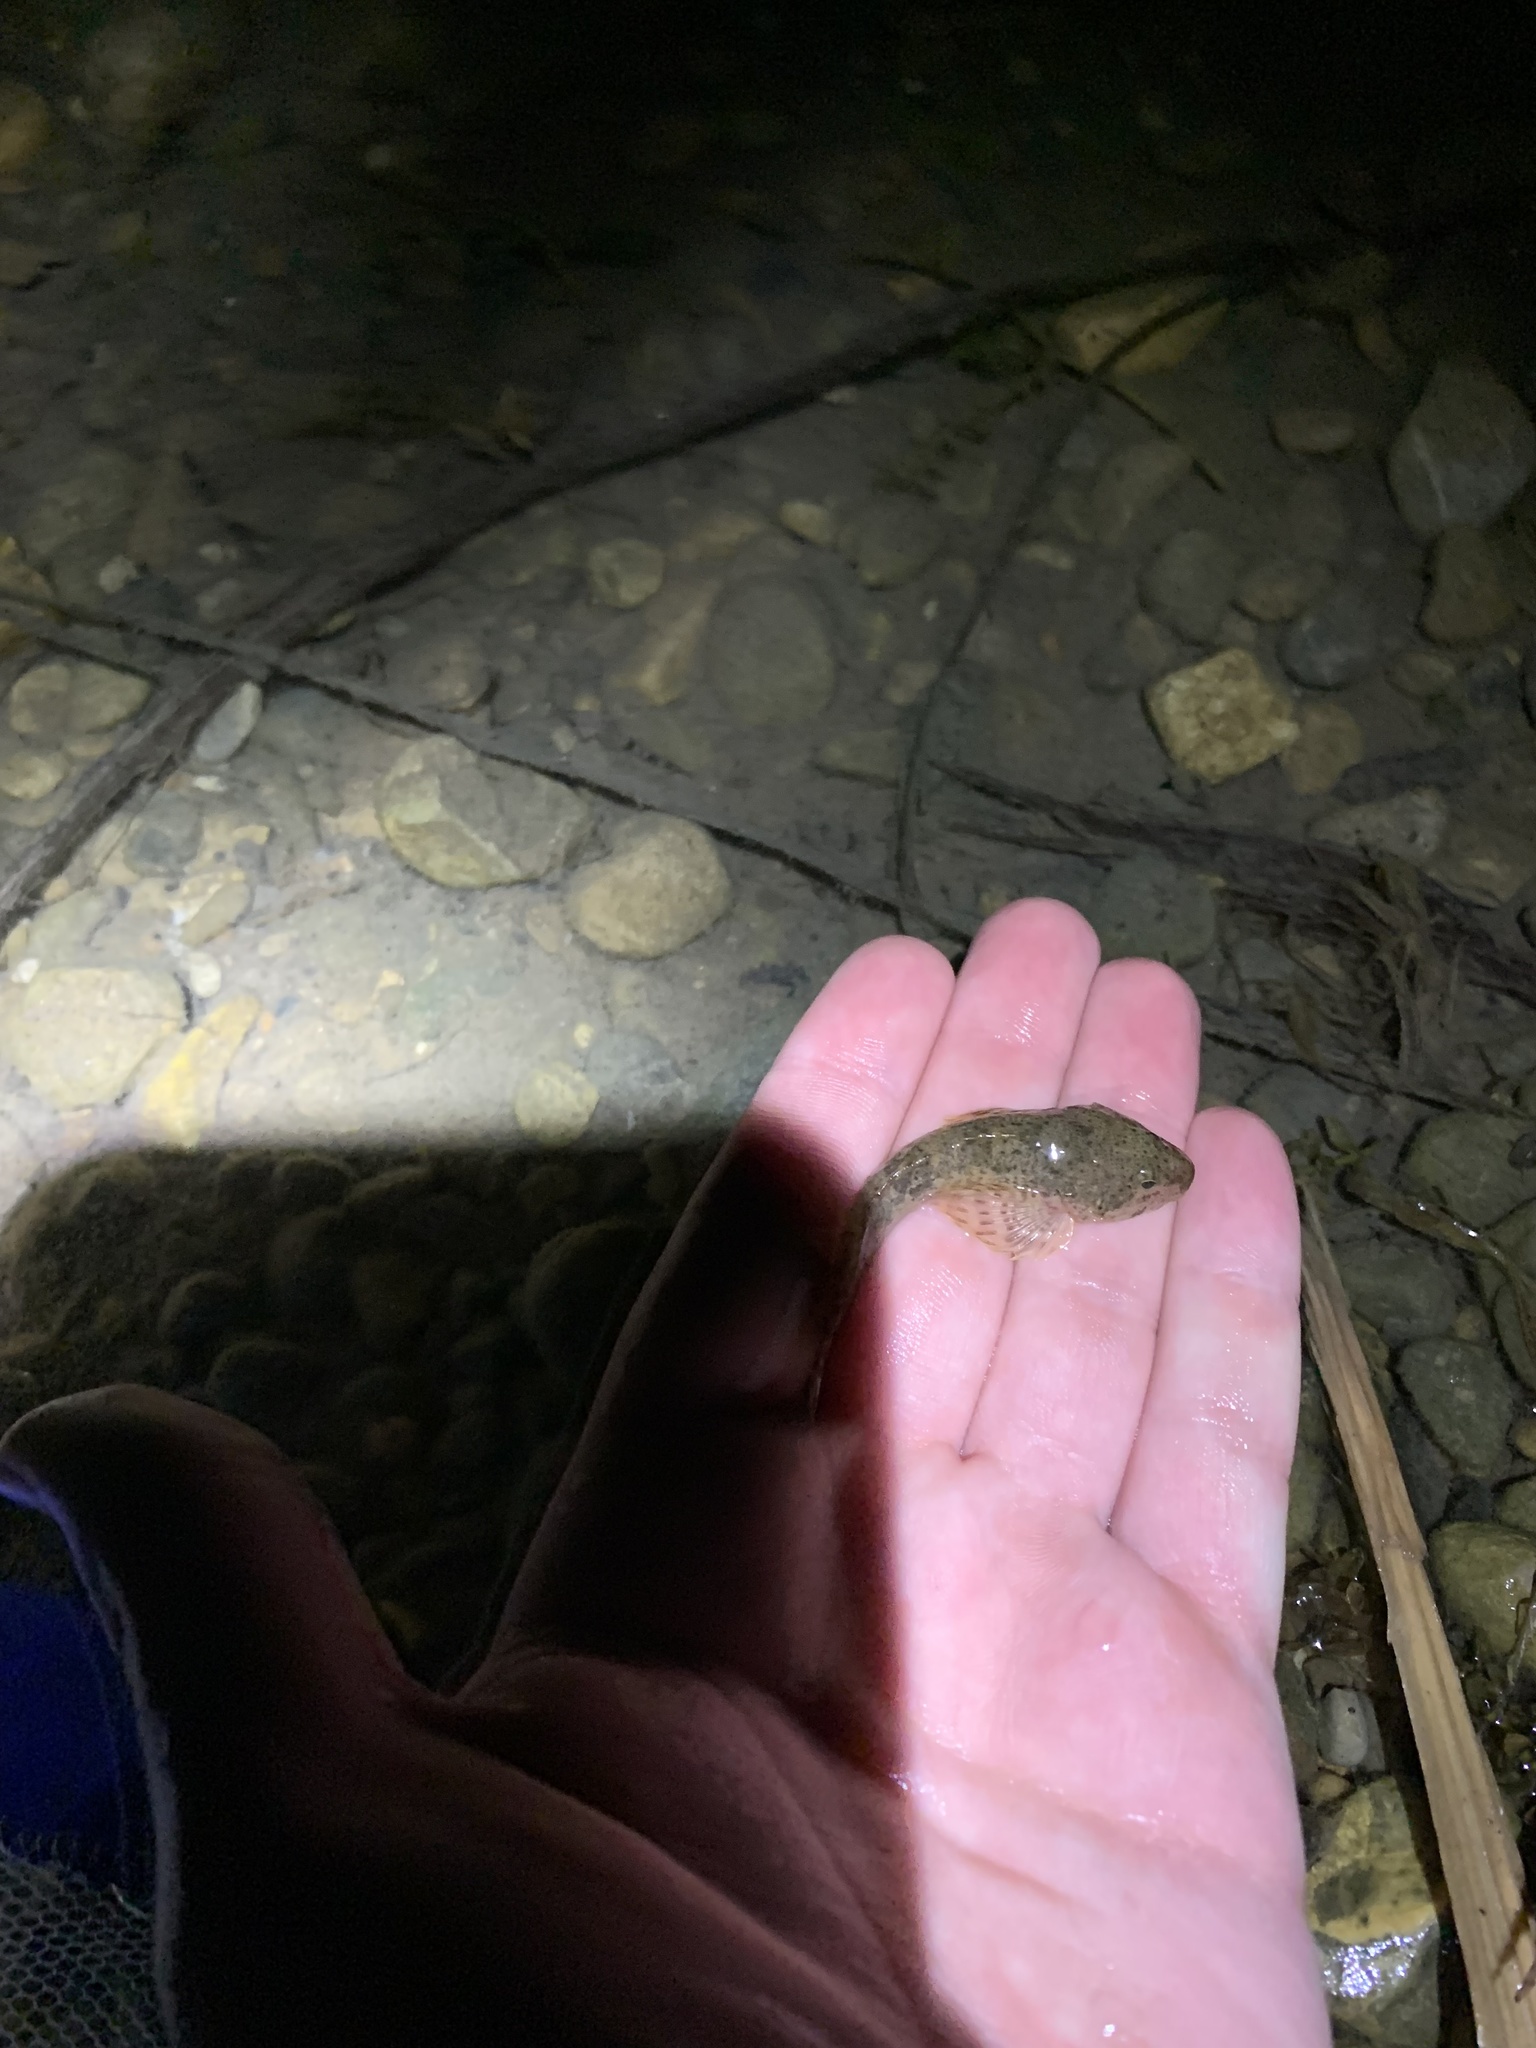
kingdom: Animalia
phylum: Chordata
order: Scorpaeniformes
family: Cottidae
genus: Cottus
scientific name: Cottus bairdii
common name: Mottled sculpin
